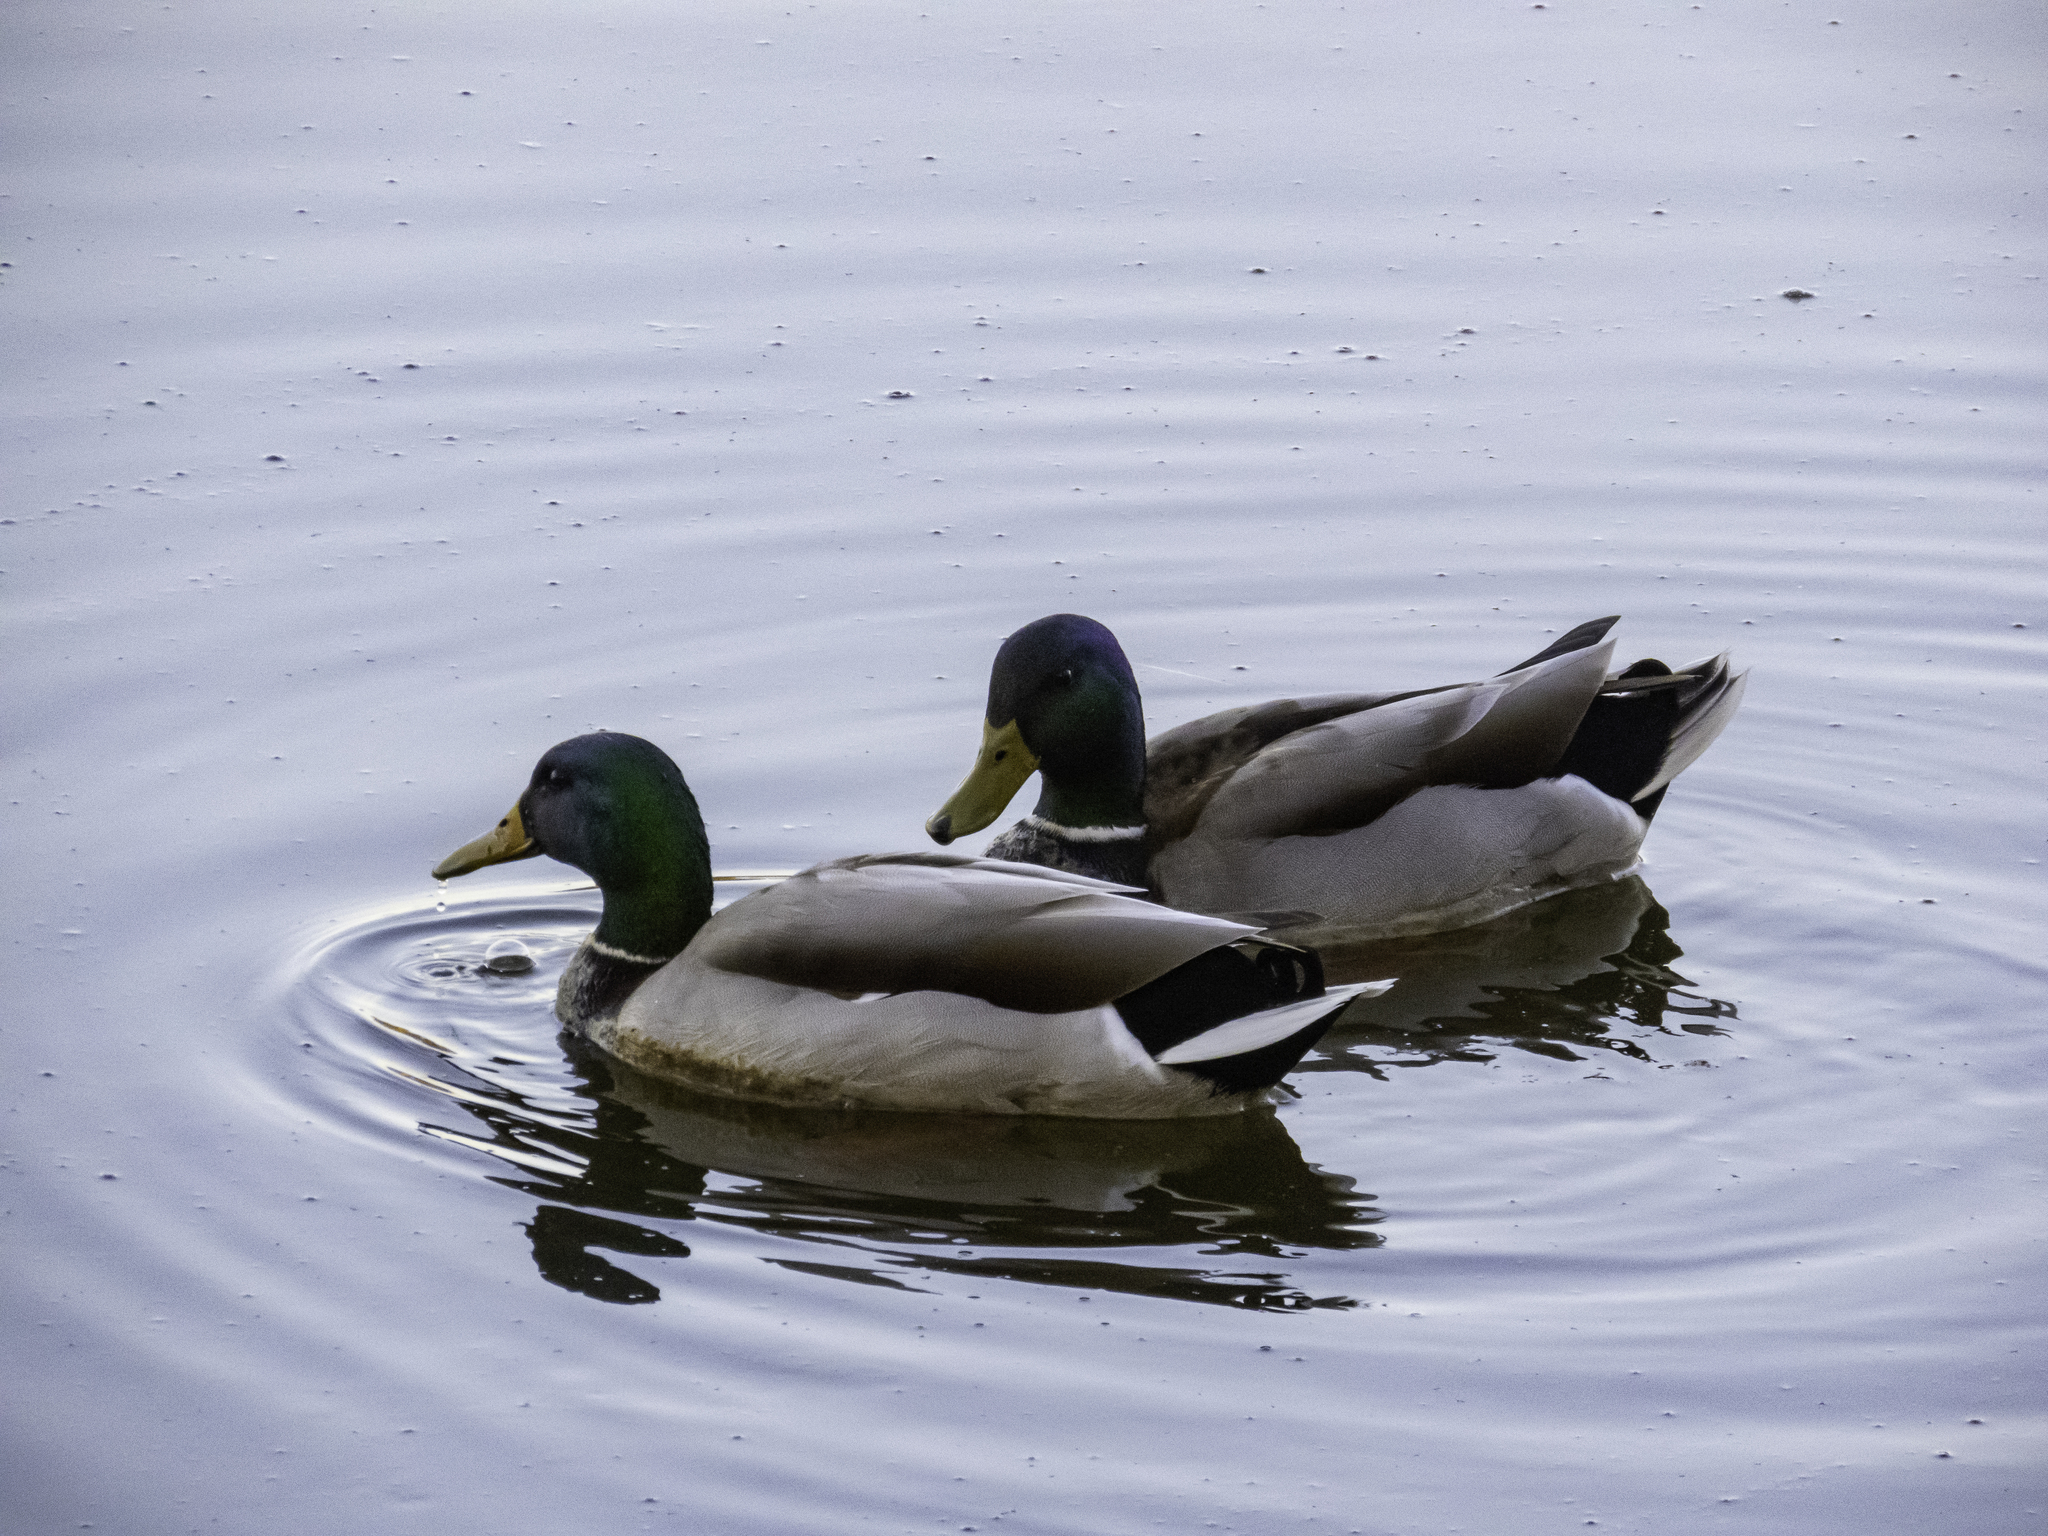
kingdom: Animalia
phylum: Chordata
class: Aves
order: Anseriformes
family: Anatidae
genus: Anas
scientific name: Anas platyrhynchos
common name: Mallard
